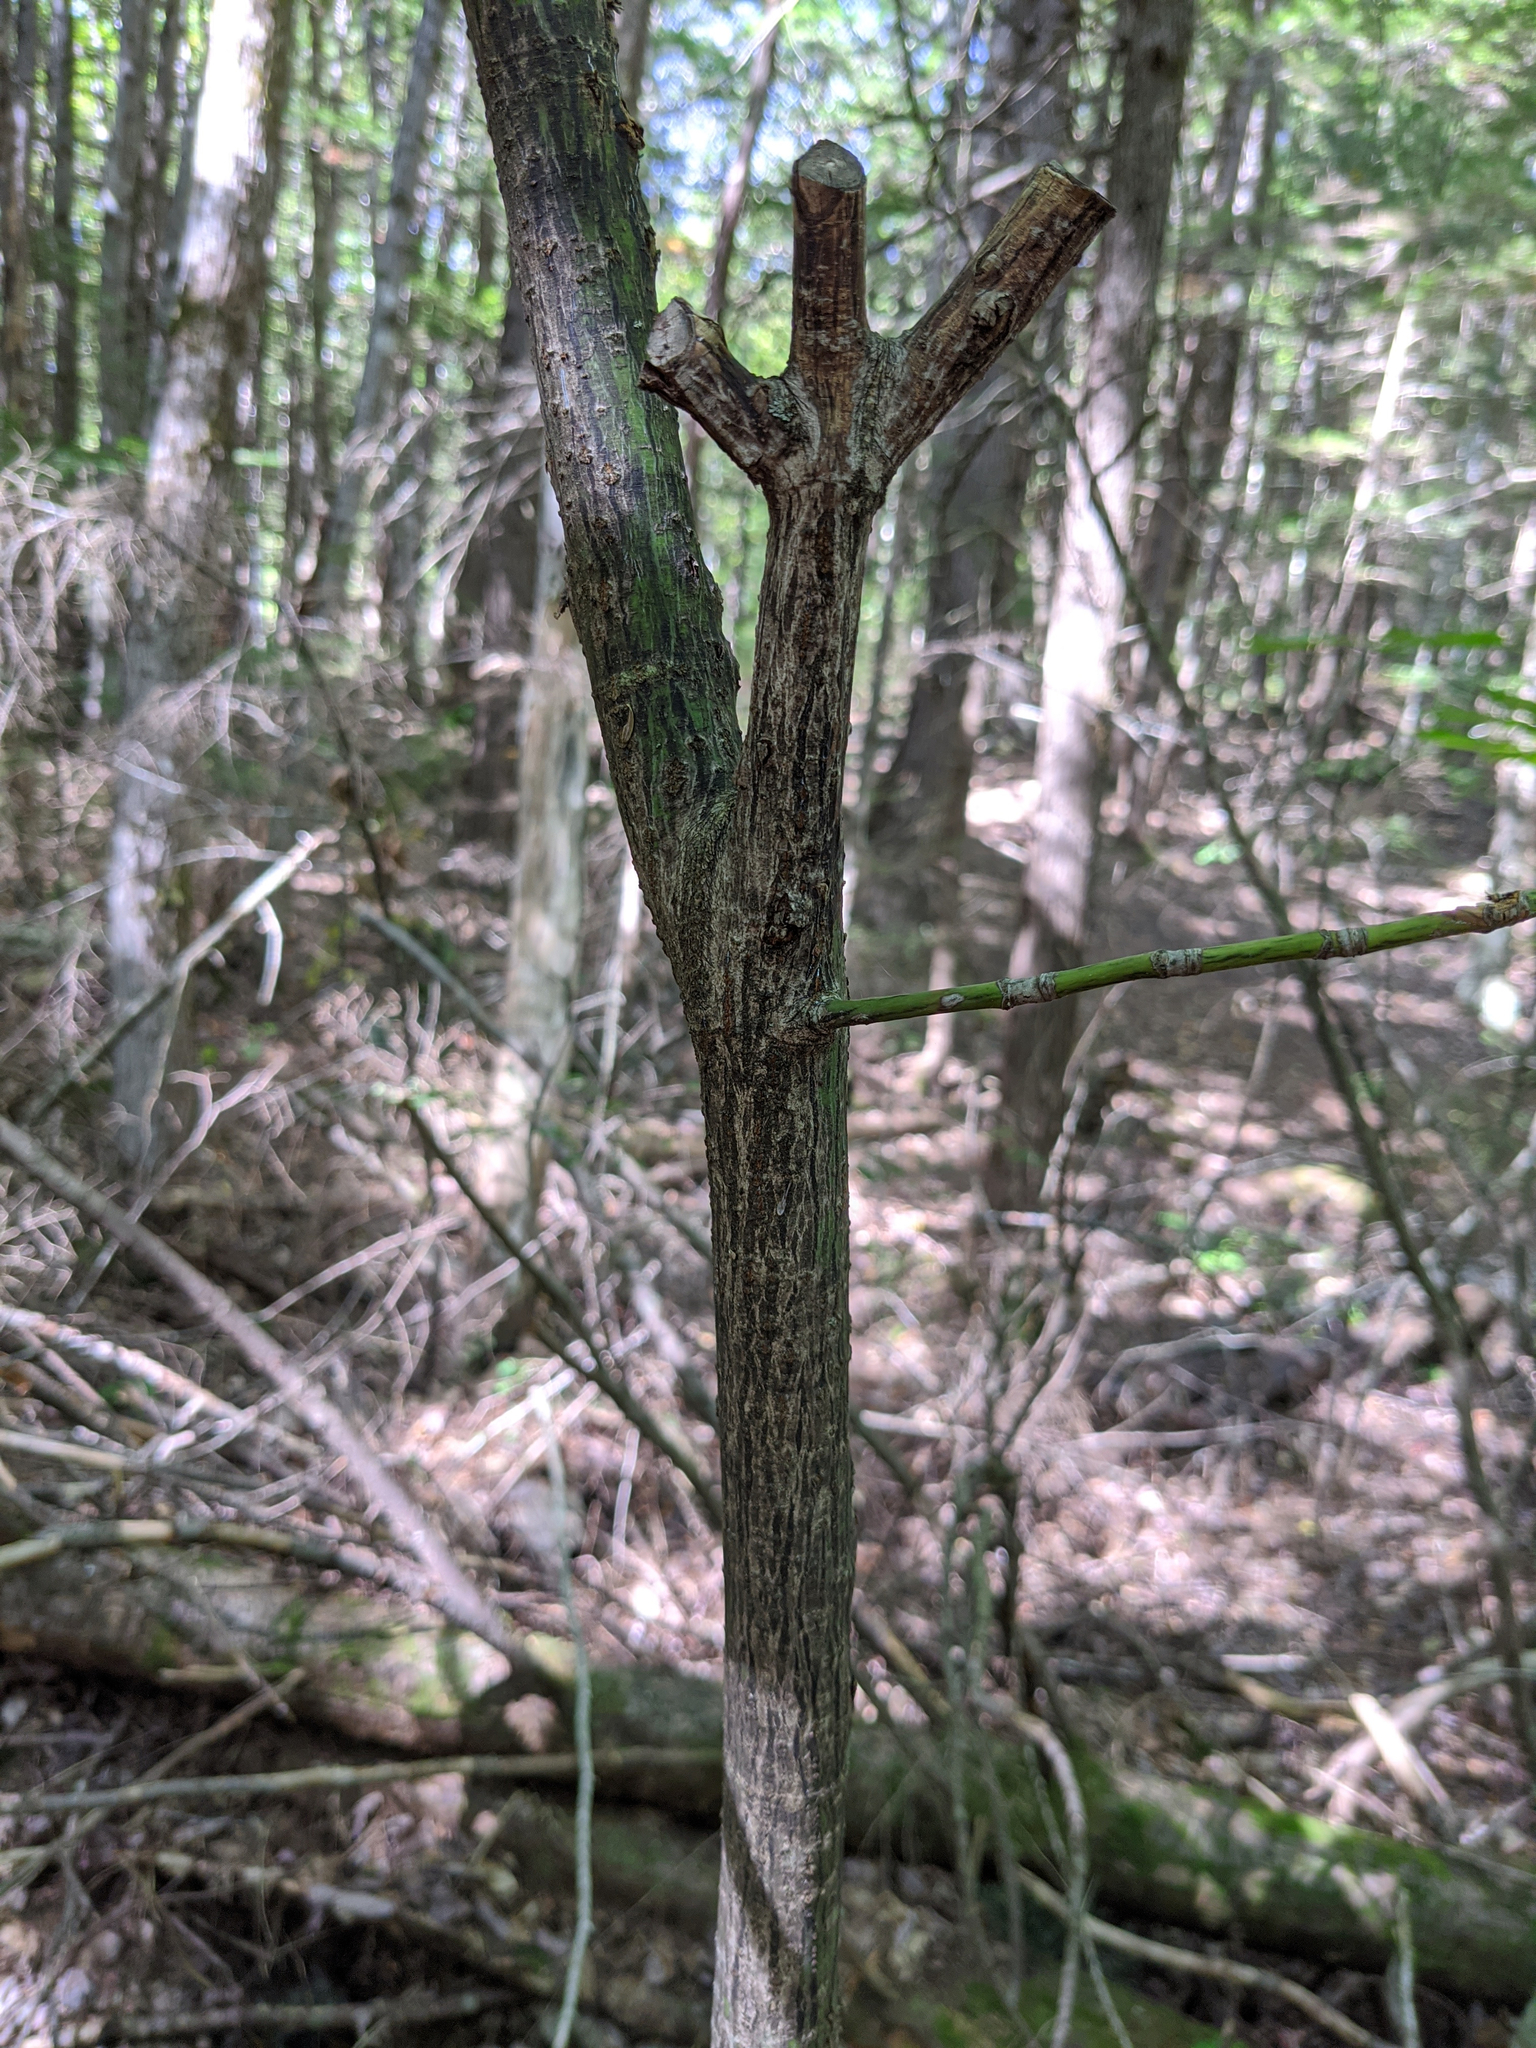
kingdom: Plantae
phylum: Tracheophyta
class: Magnoliopsida
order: Sapindales
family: Sapindaceae
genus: Acer
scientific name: Acer pensylvanicum
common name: Moosewood
